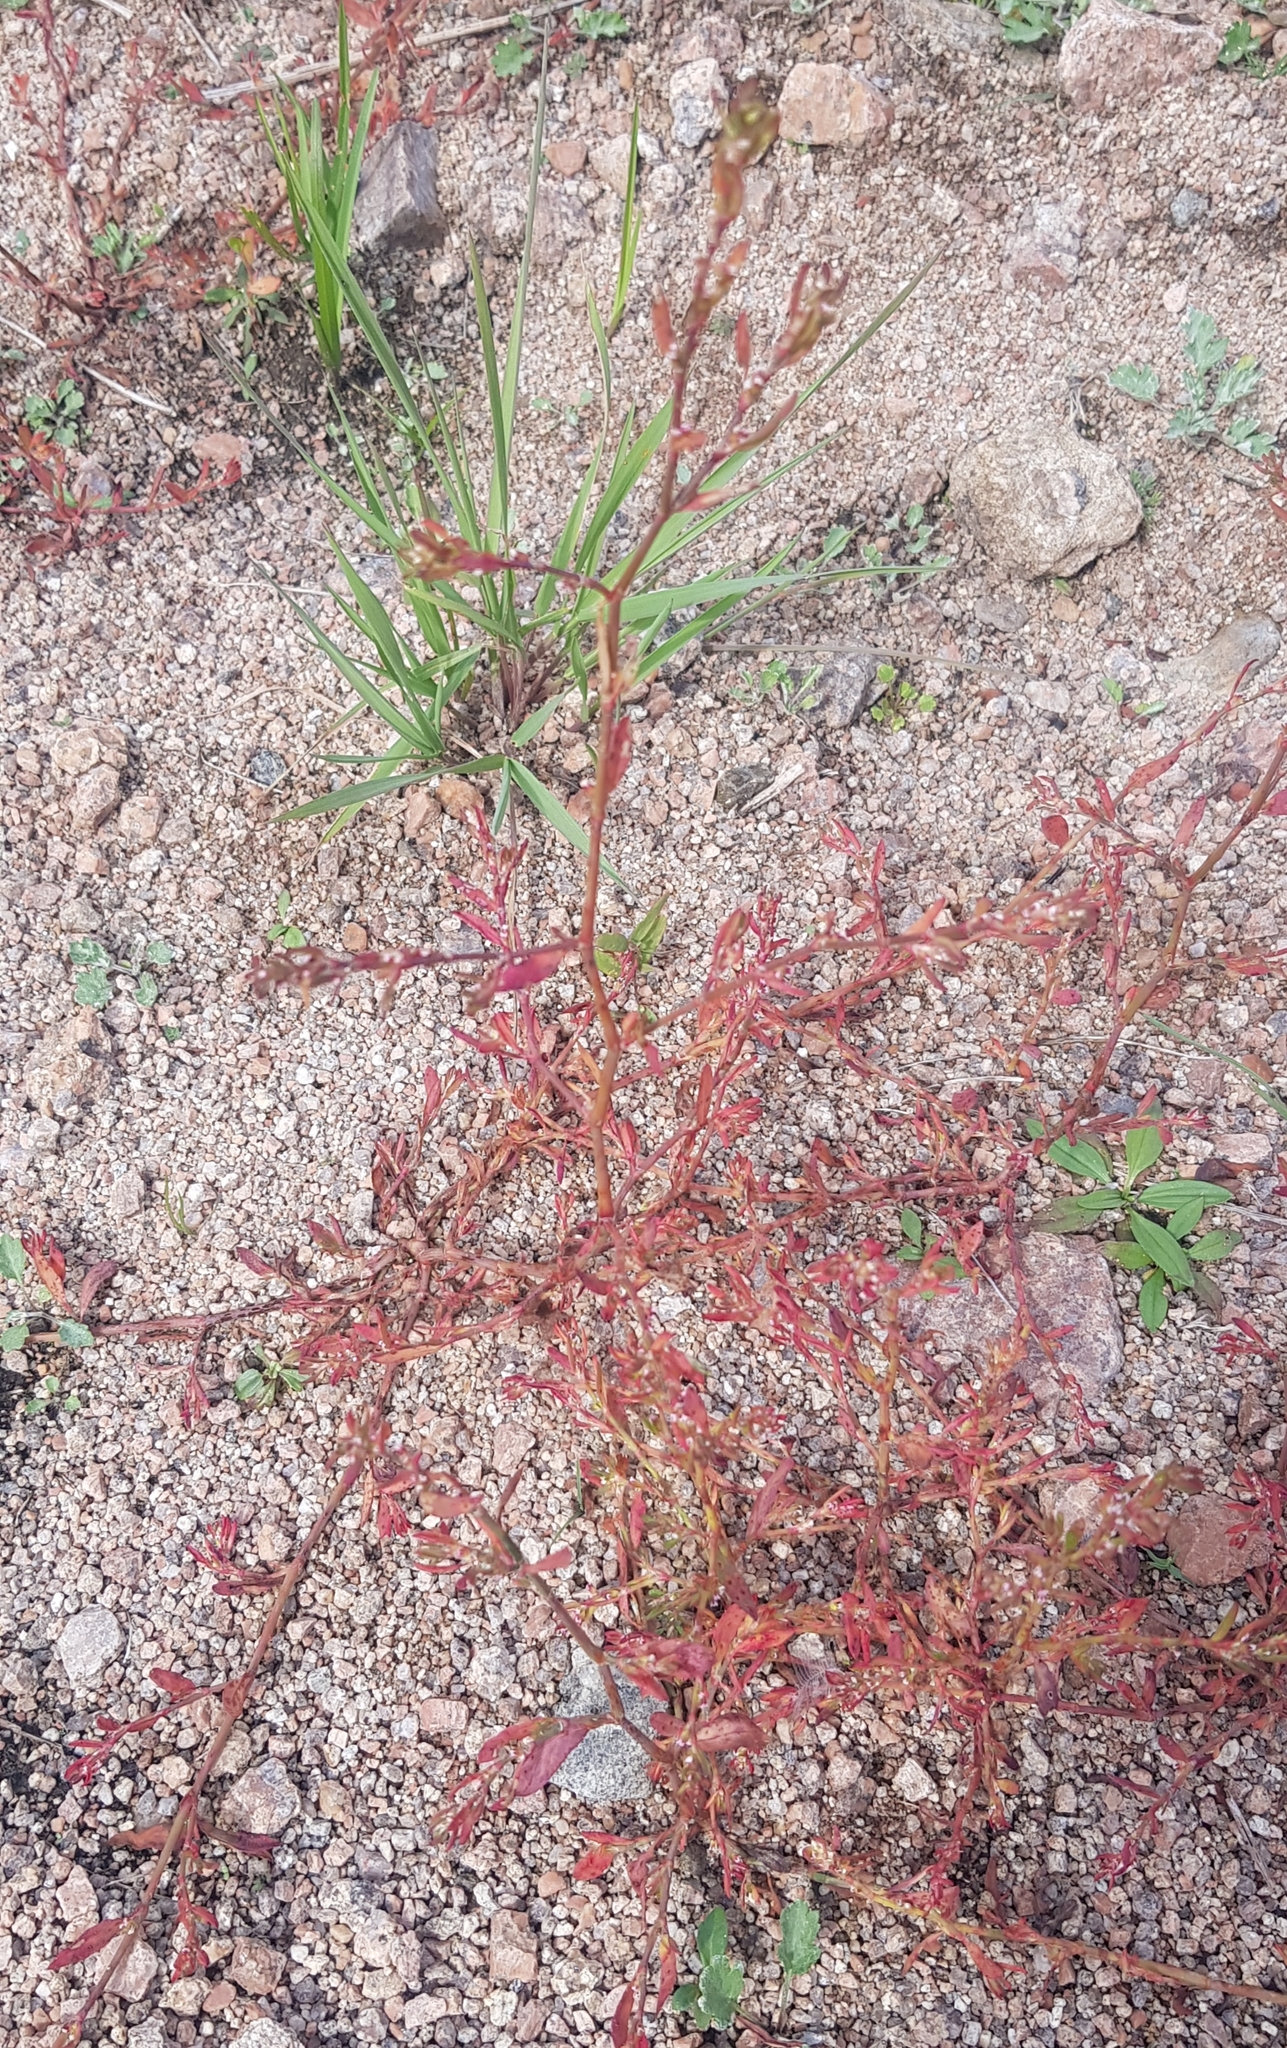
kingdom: Plantae
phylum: Tracheophyta
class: Magnoliopsida
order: Caryophyllales
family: Polygonaceae
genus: Polygonum
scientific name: Polygonum aviculare
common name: Prostrate knotweed
